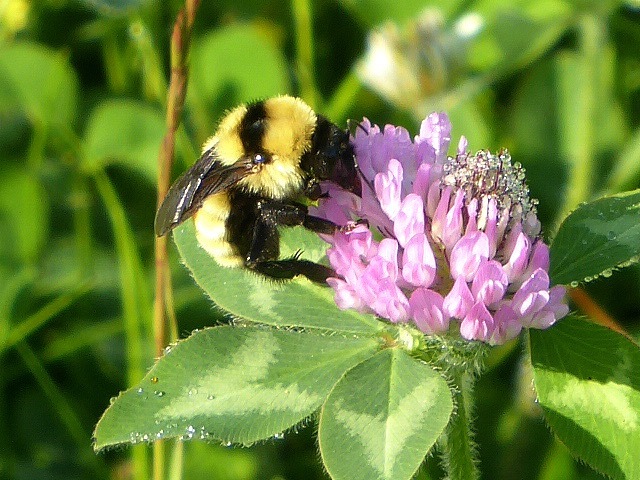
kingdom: Animalia
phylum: Arthropoda
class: Insecta
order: Hymenoptera
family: Apidae
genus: Bombus
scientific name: Bombus fervidus
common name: Yellow bumble bee
